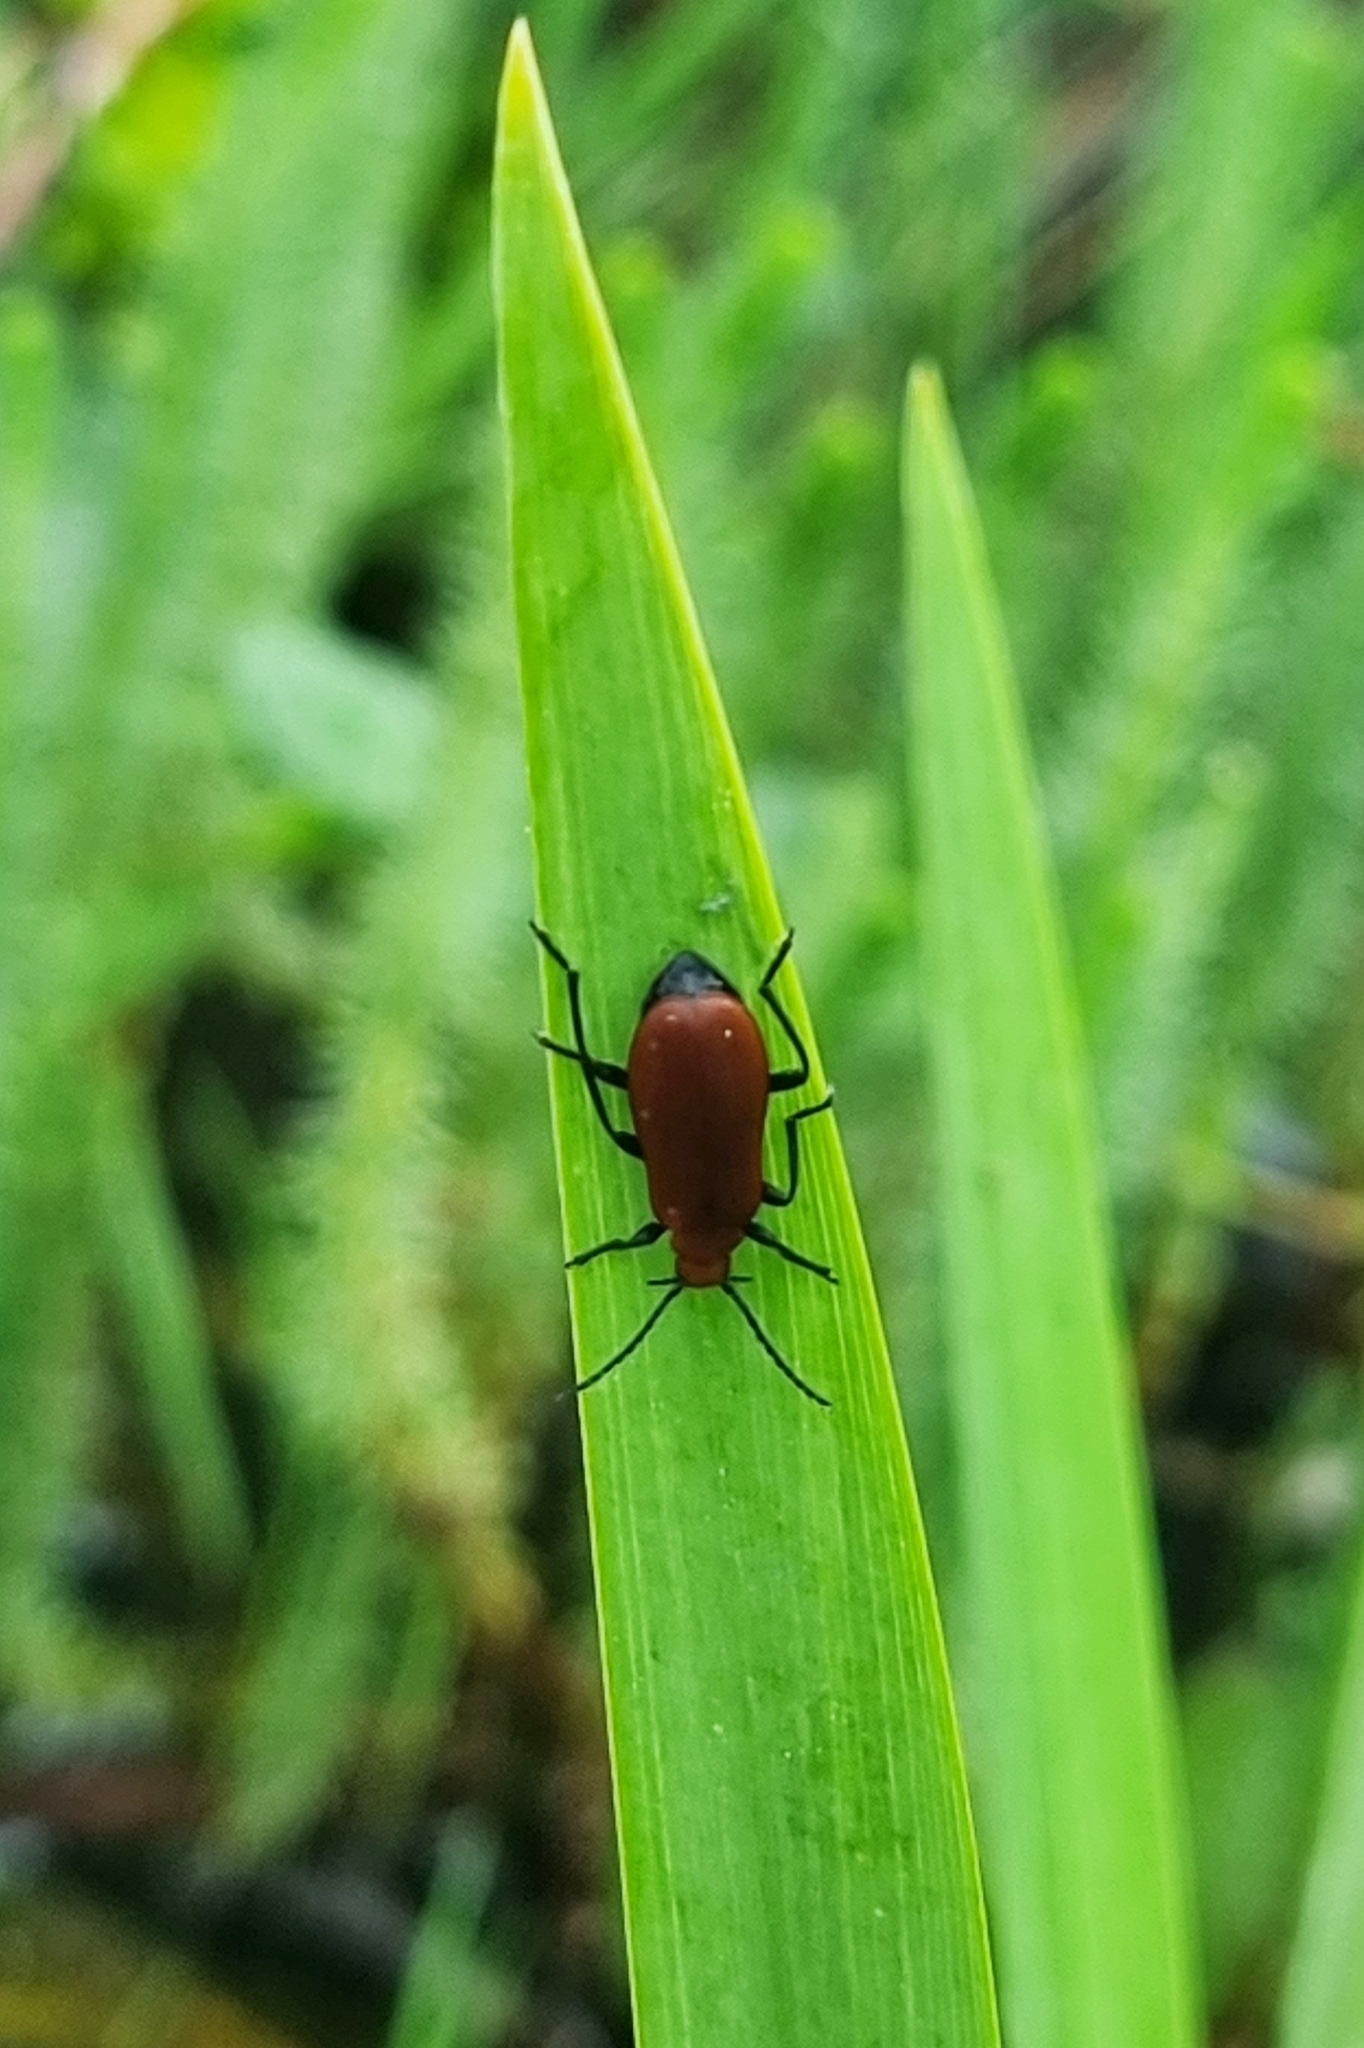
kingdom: Animalia
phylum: Arthropoda
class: Insecta
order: Coleoptera
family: Pyrochroidae
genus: Pyrochroa
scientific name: Pyrochroa serraticornis
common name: Red-headed cardinal beetle
